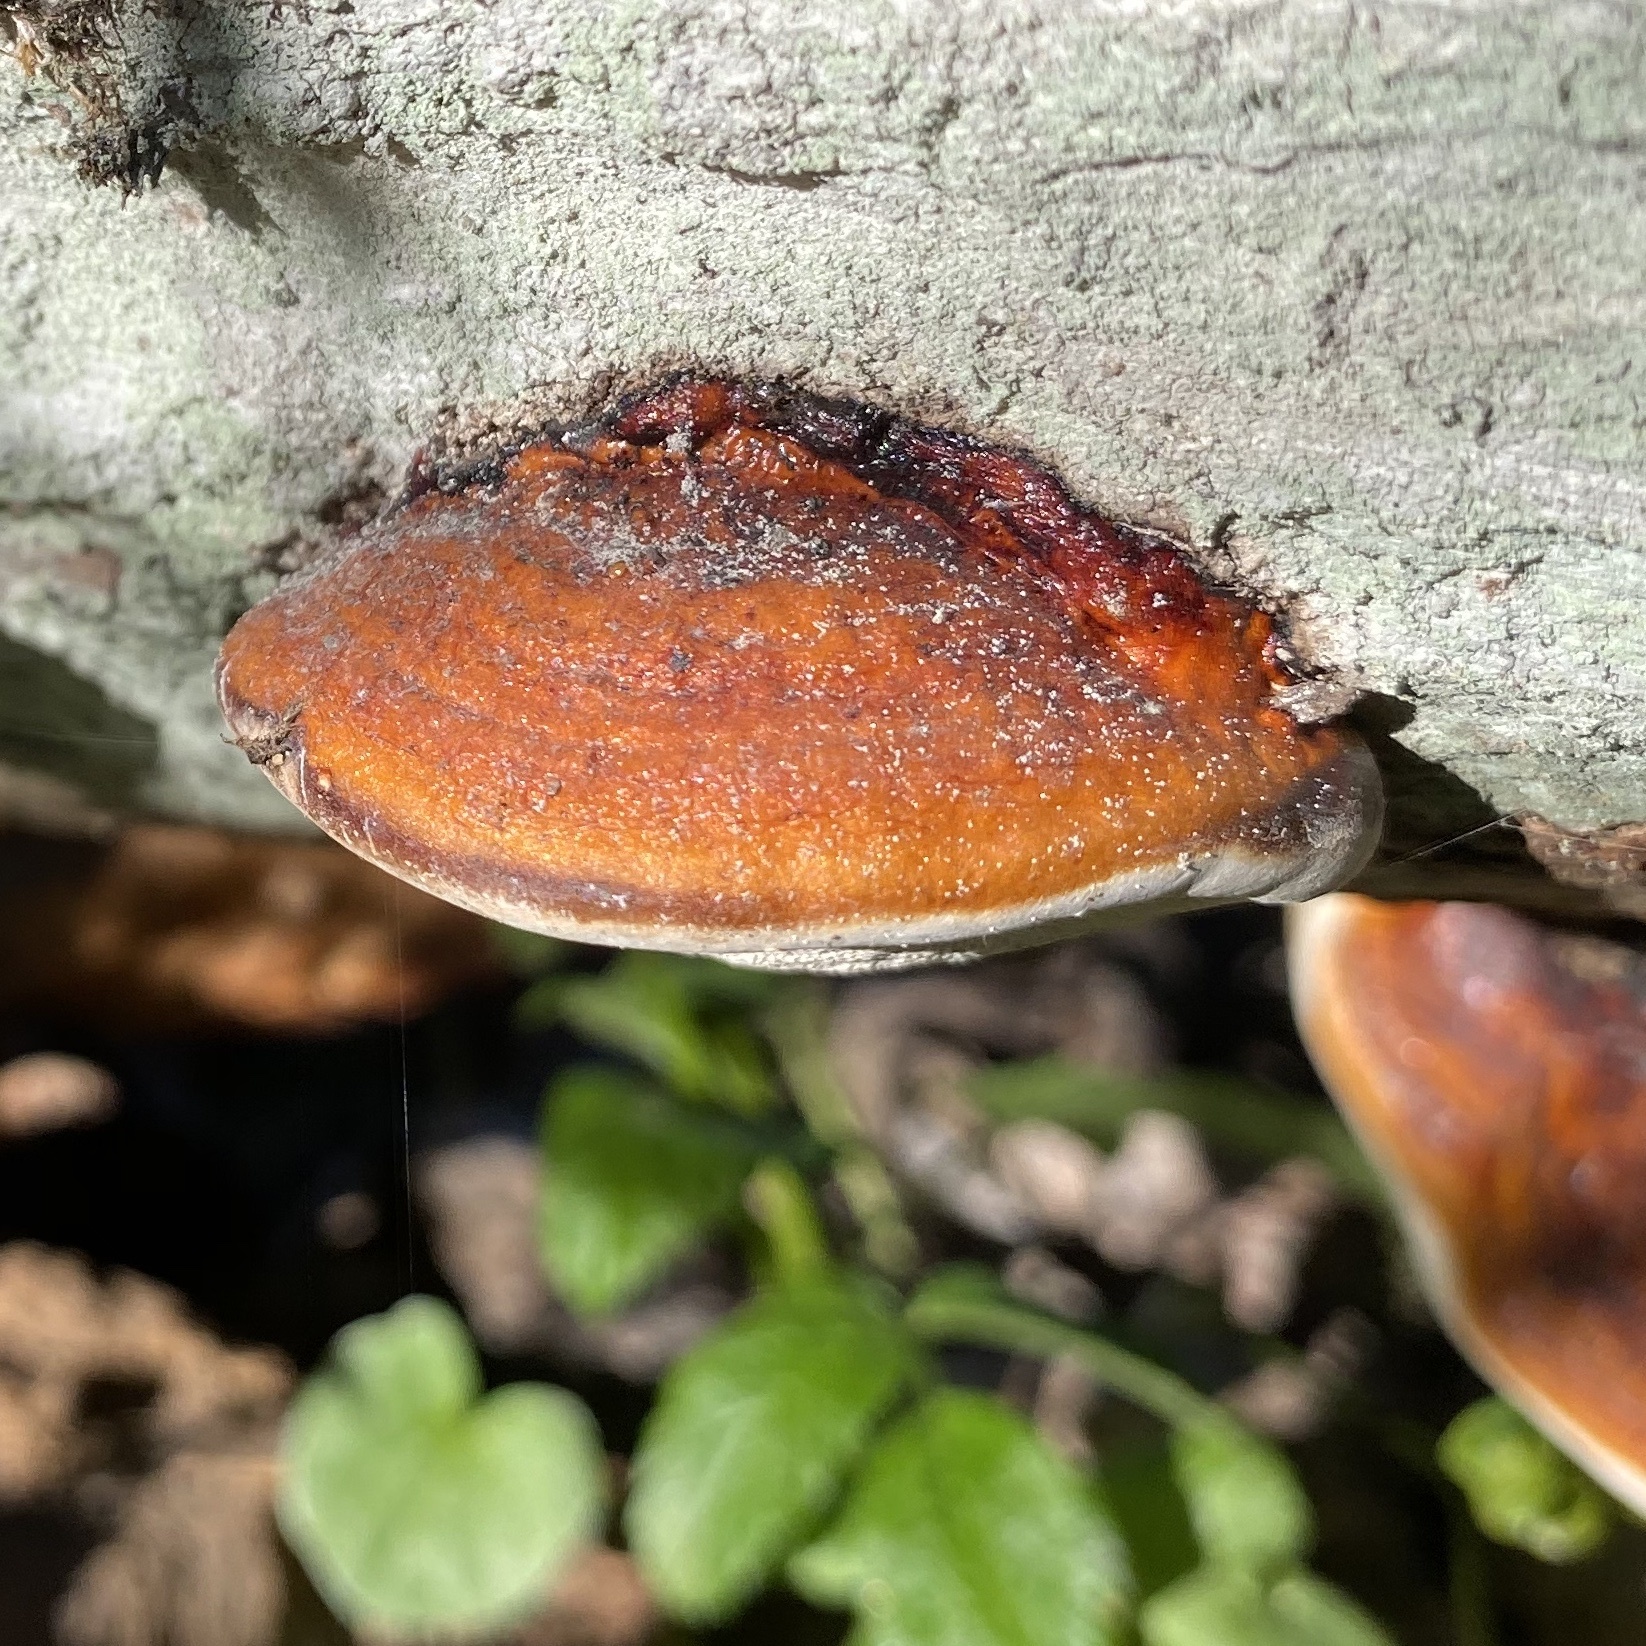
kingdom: Fungi
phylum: Basidiomycota
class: Agaricomycetes
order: Polyporales
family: Fomitopsidaceae
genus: Fomitopsis
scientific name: Fomitopsis pinicola
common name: Red-belted bracket
